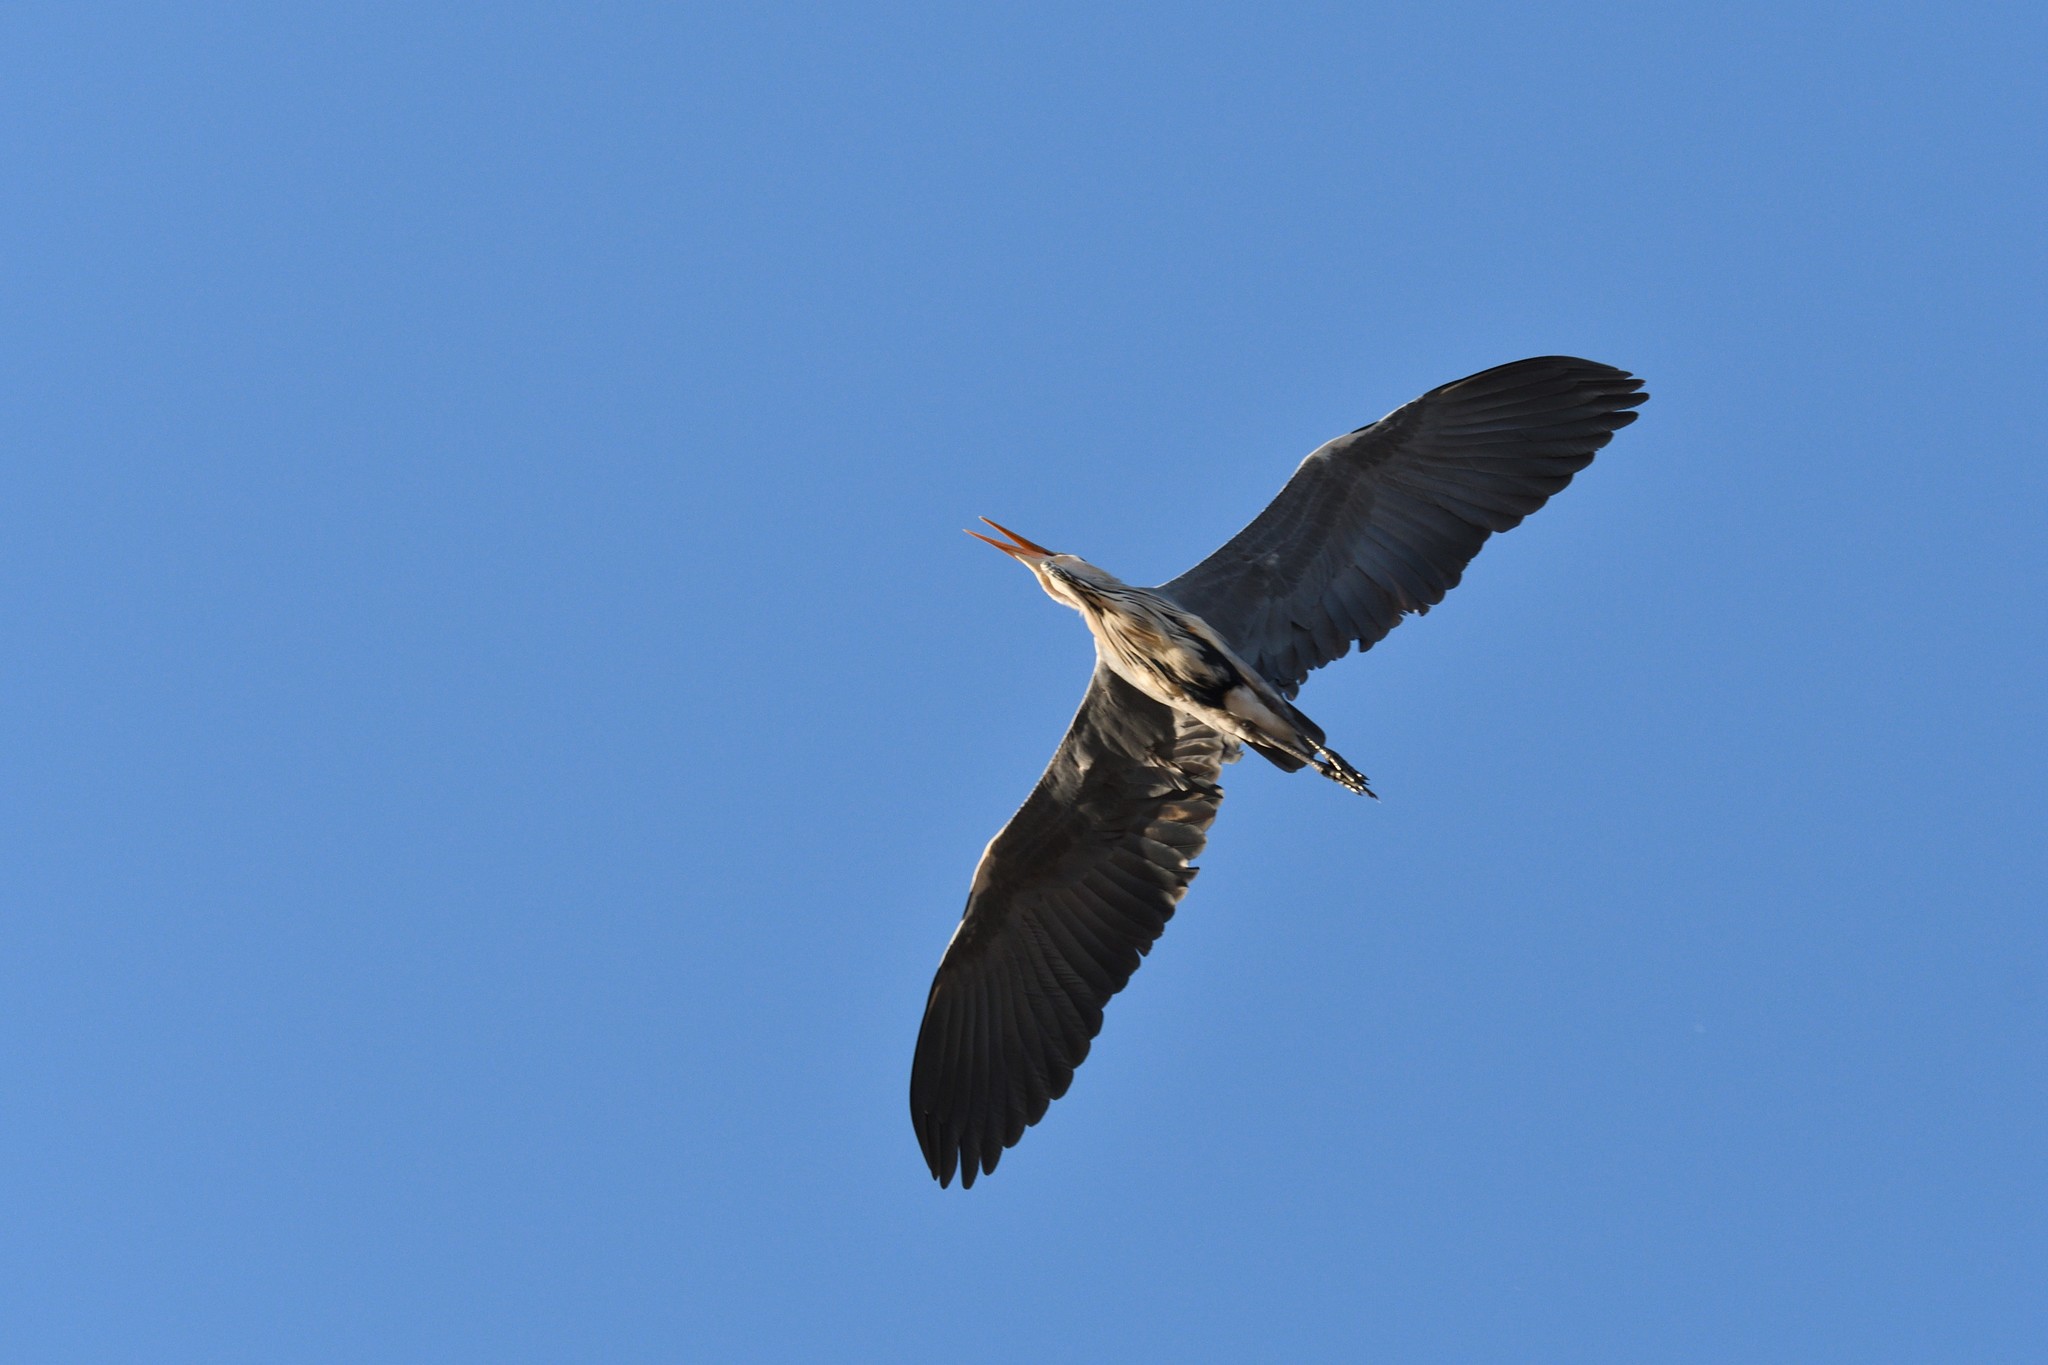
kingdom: Animalia
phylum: Chordata
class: Aves
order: Pelecaniformes
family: Ardeidae
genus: Ardea
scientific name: Ardea cinerea
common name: Grey heron
